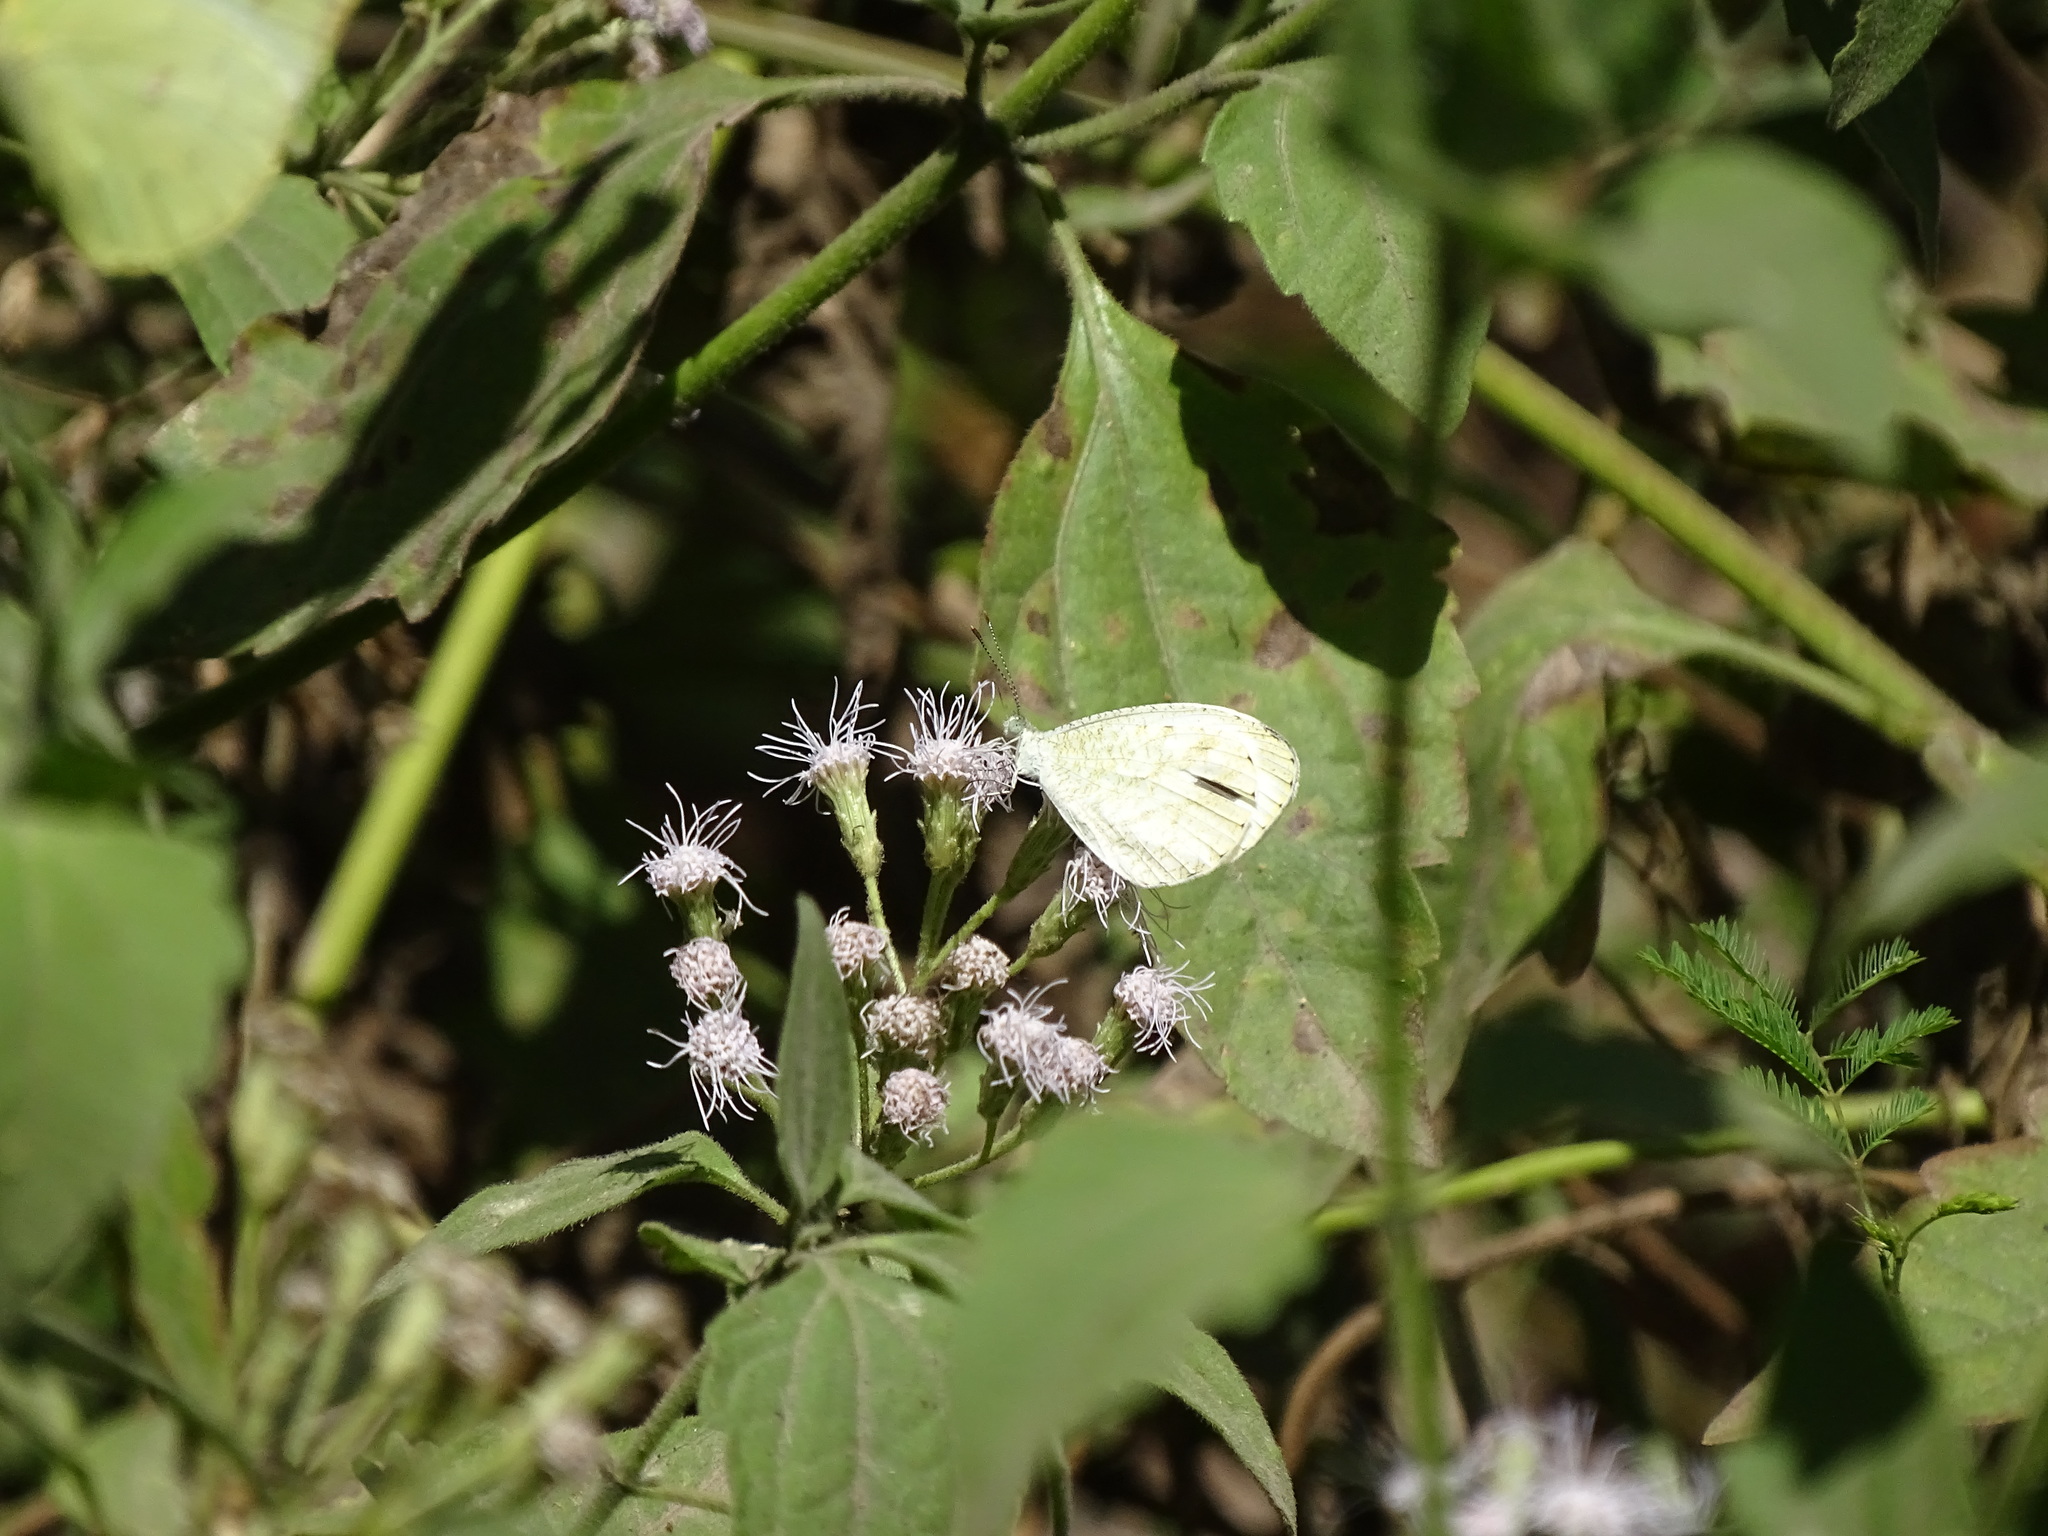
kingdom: Animalia
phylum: Arthropoda
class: Insecta
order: Lepidoptera
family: Pieridae
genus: Leptosia
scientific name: Leptosia nina
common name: Psyche
